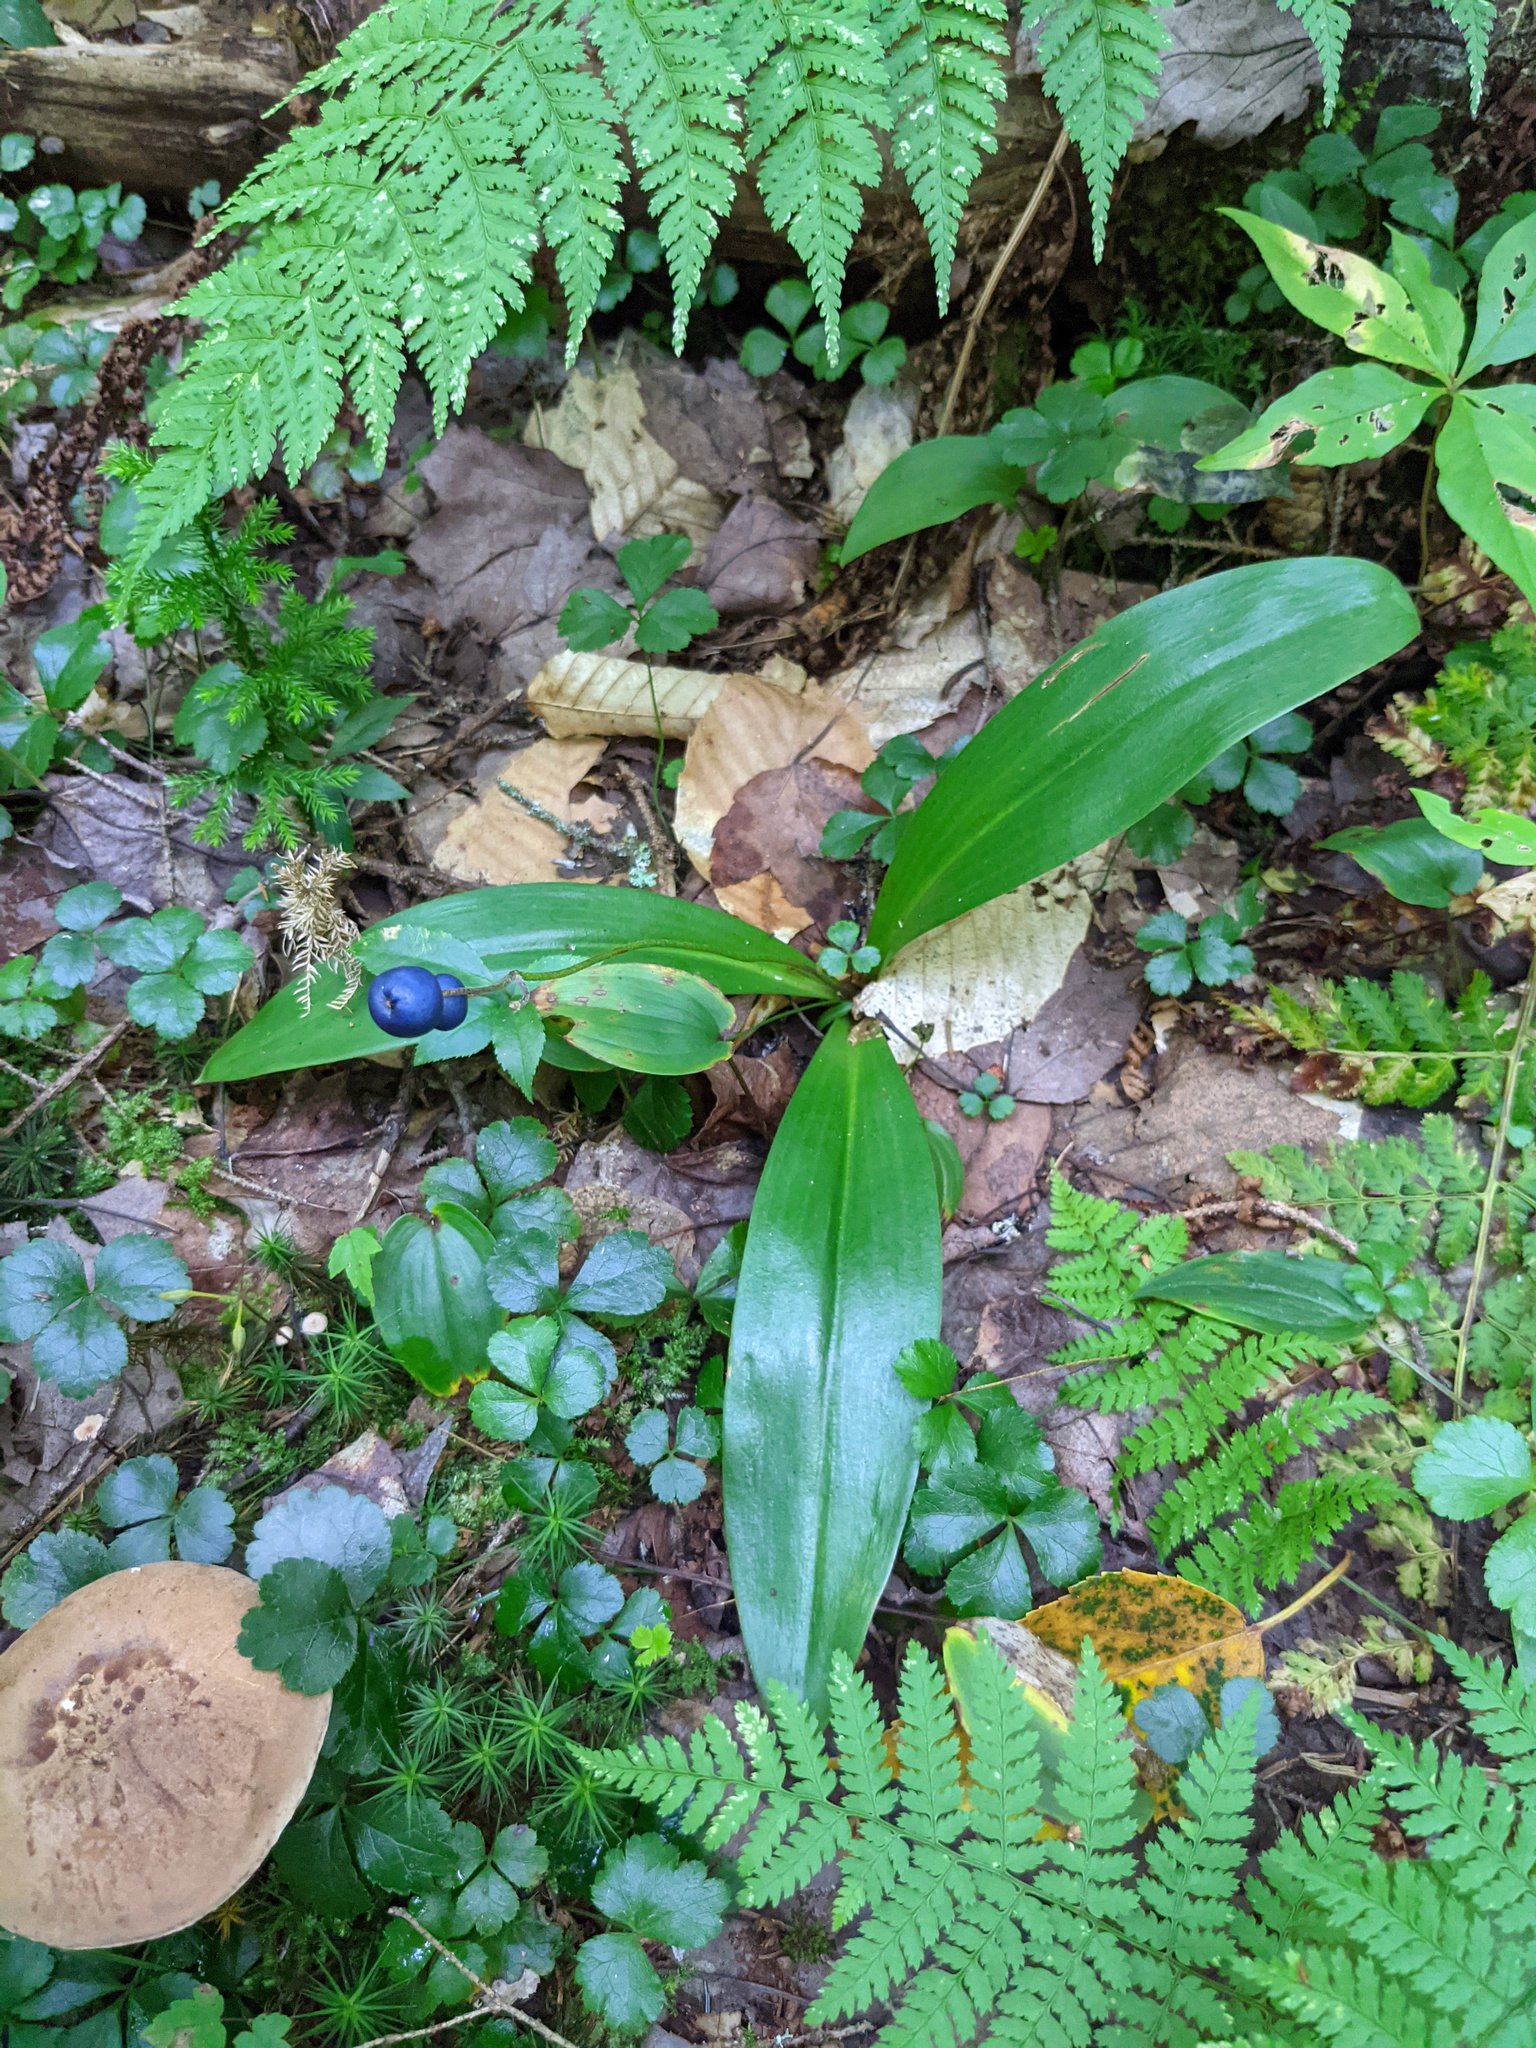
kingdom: Plantae
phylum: Tracheophyta
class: Liliopsida
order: Liliales
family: Liliaceae
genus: Clintonia
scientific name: Clintonia borealis
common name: Yellow clintonia
